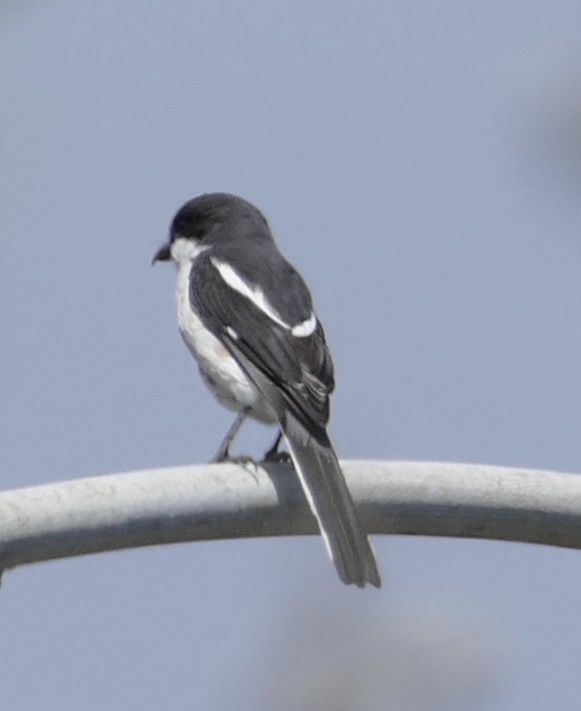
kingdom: Animalia
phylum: Chordata
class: Aves
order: Passeriformes
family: Laniidae
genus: Lanius
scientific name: Lanius collaris
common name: Southern fiscal
